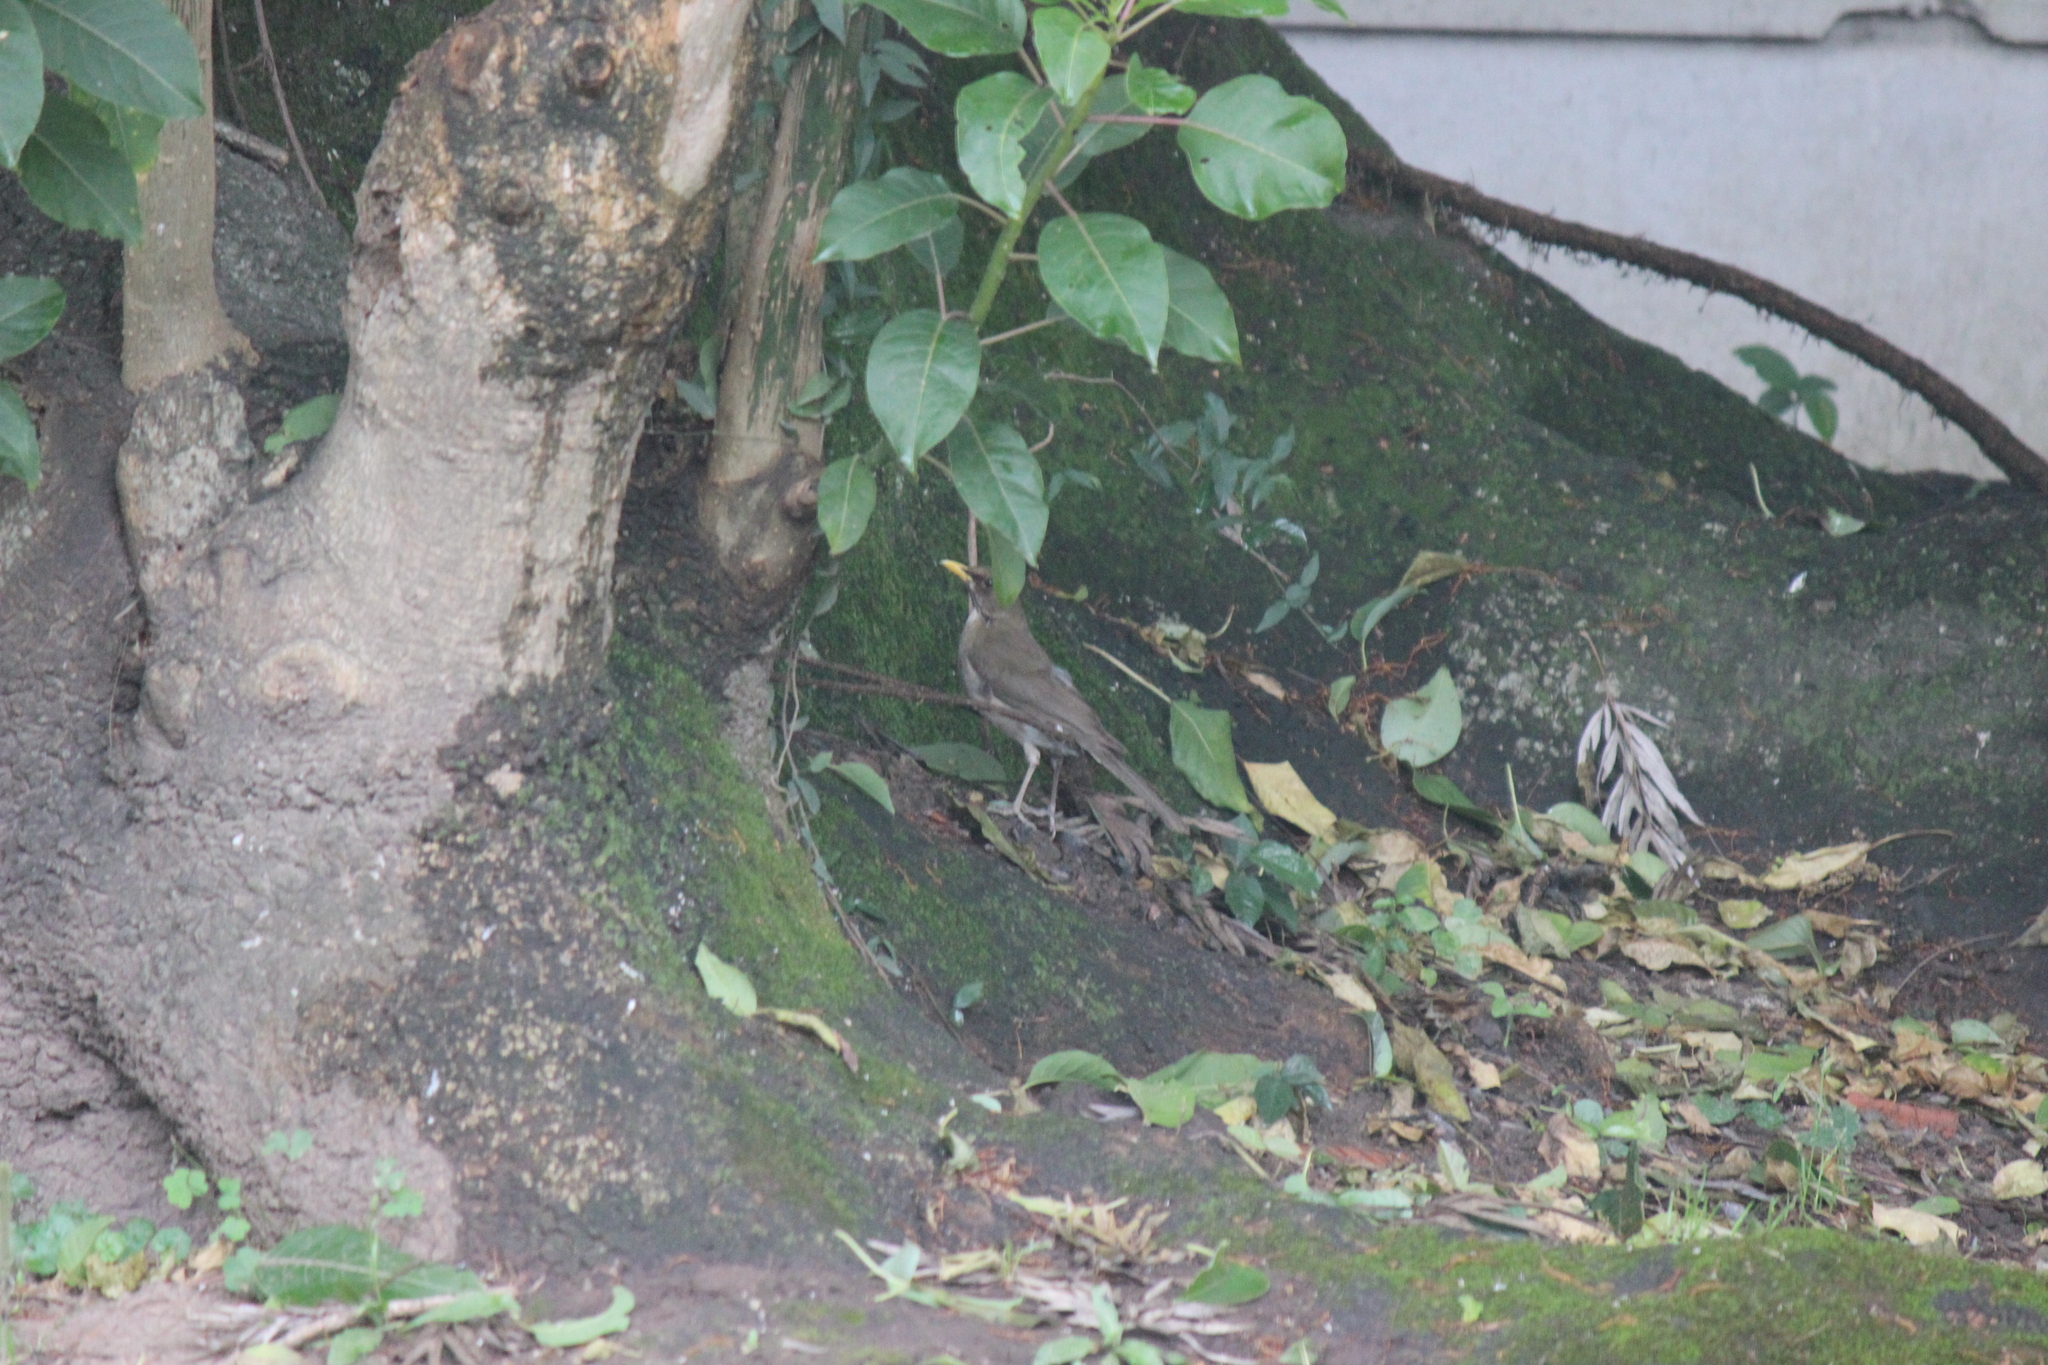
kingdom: Animalia
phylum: Chordata
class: Aves
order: Passeriformes
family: Turdidae
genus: Turdus
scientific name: Turdus amaurochalinus
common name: Creamy-bellied thrush
